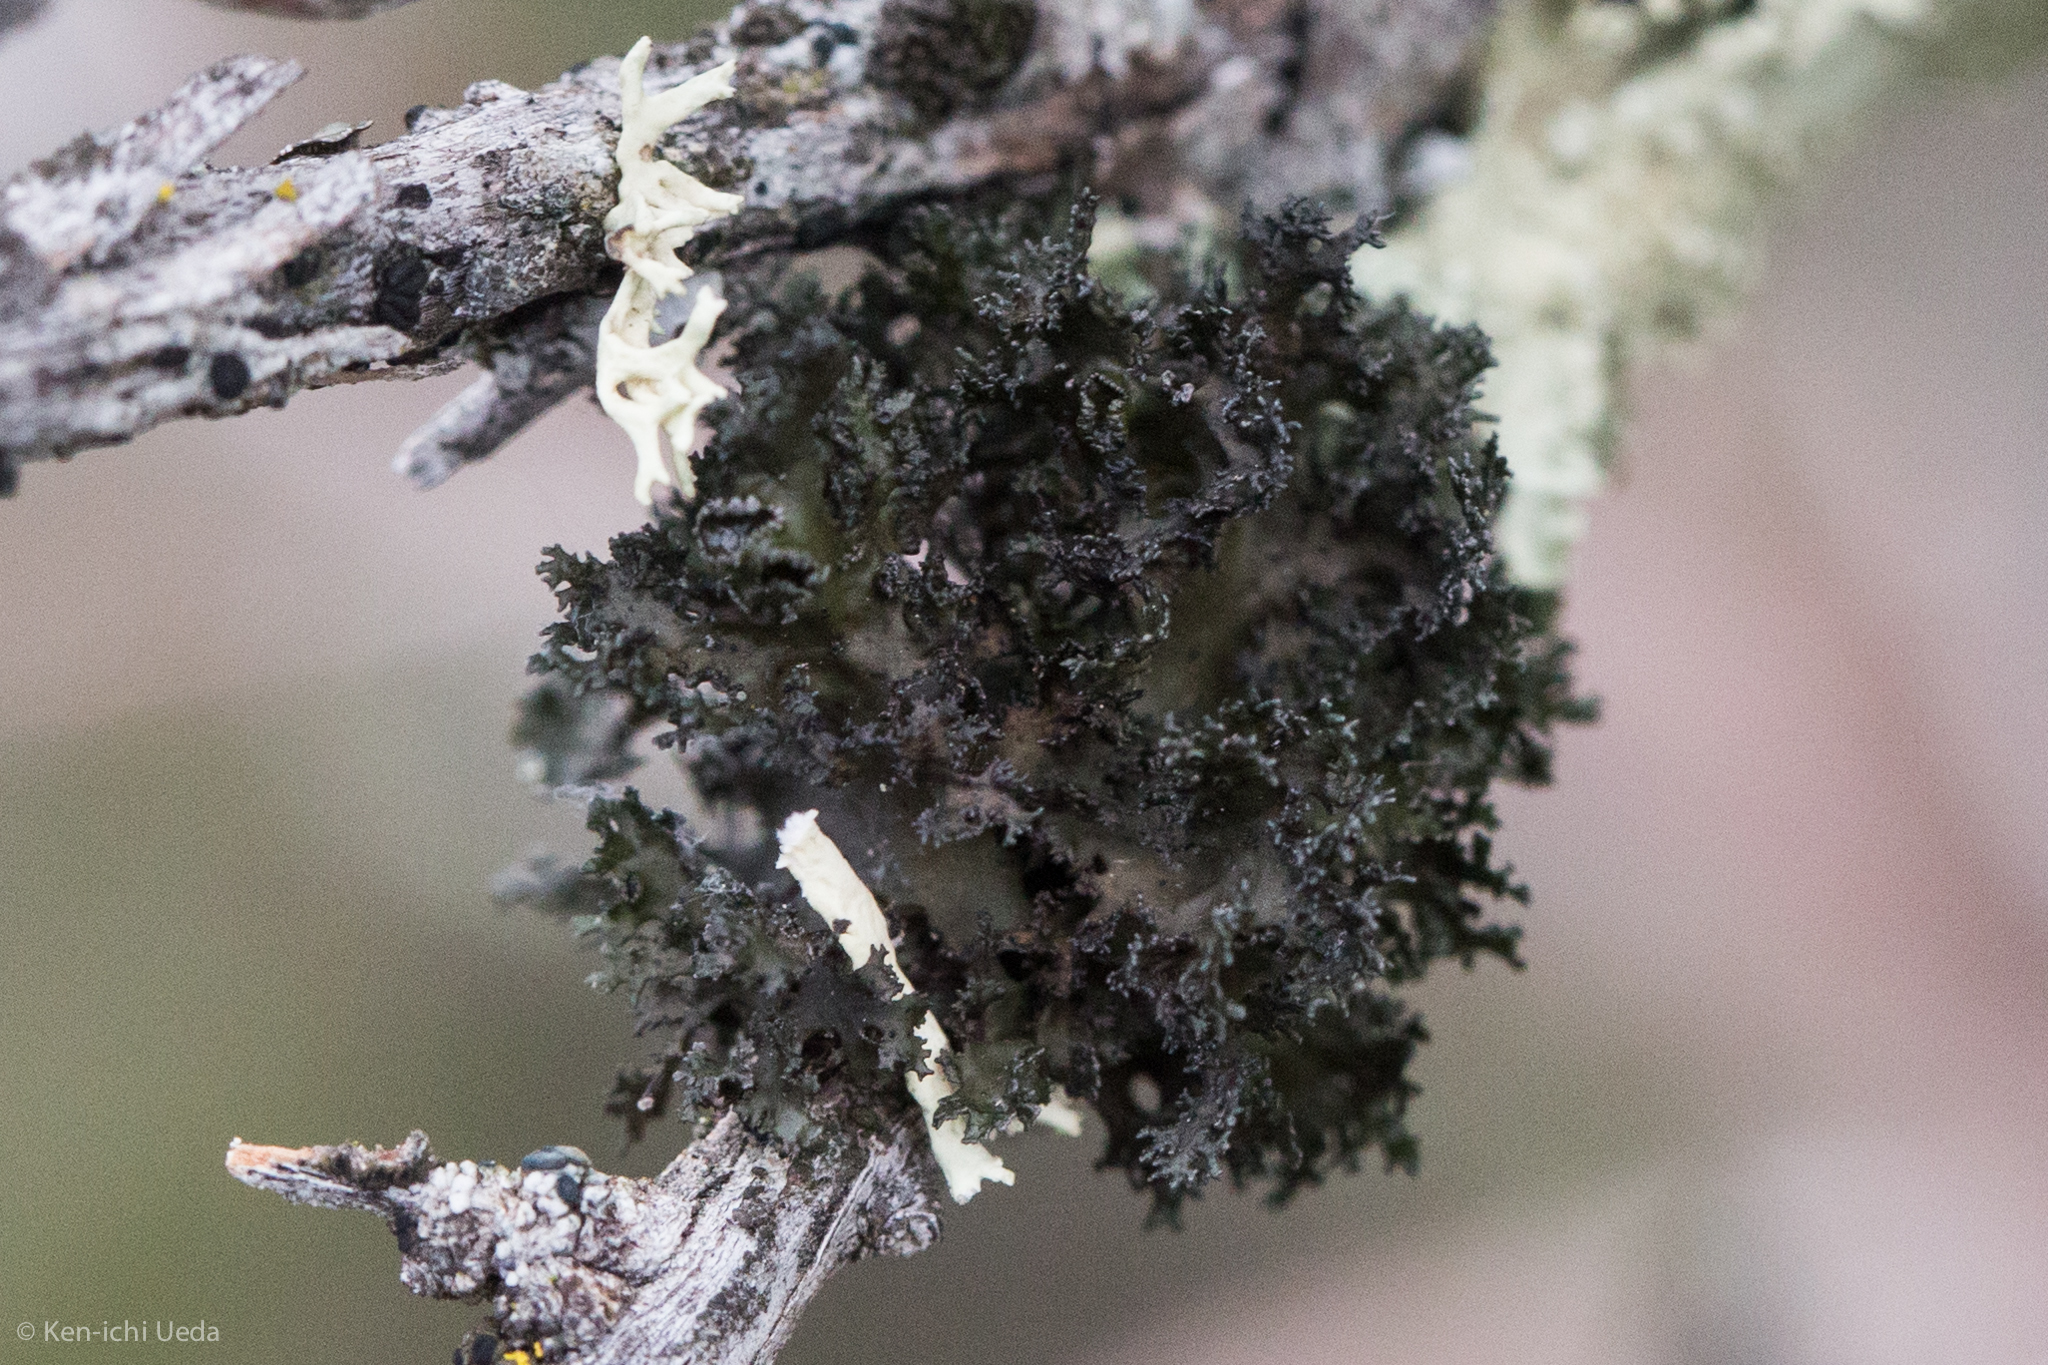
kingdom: Fungi
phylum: Ascomycota
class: Lecanoromycetes
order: Lecanorales
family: Parmeliaceae
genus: Nephromopsis
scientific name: Nephromopsis merrillii
